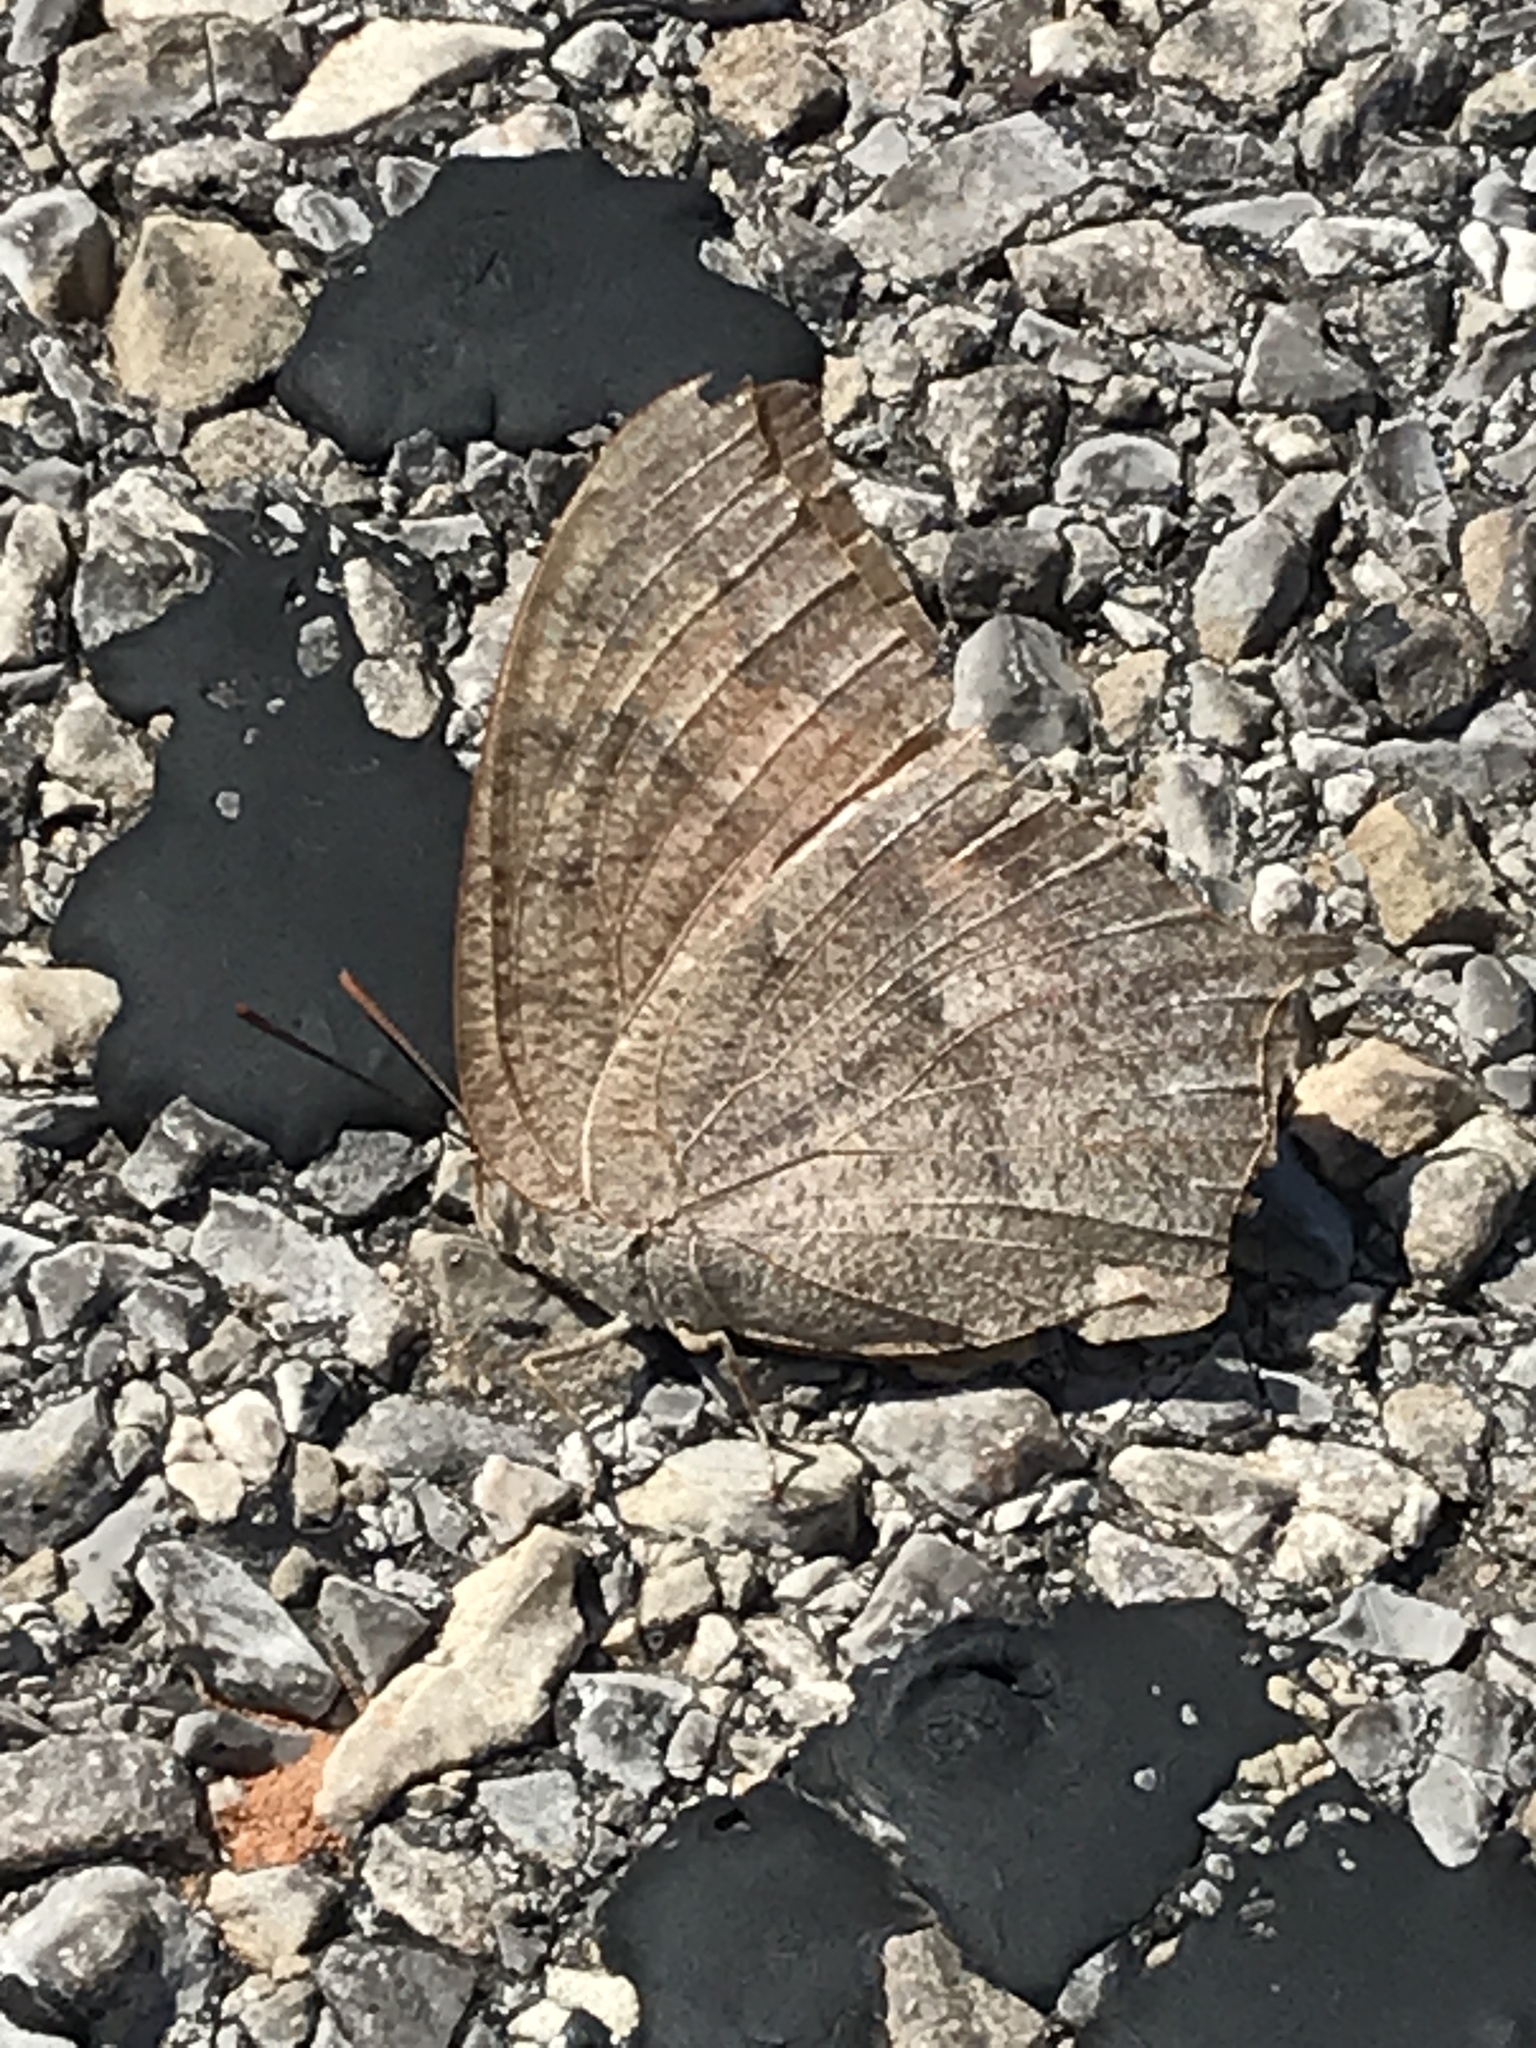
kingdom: Animalia
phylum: Arthropoda
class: Insecta
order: Lepidoptera
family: Nymphalidae
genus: Anaea
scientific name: Anaea andria
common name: Goatweed leafwing
